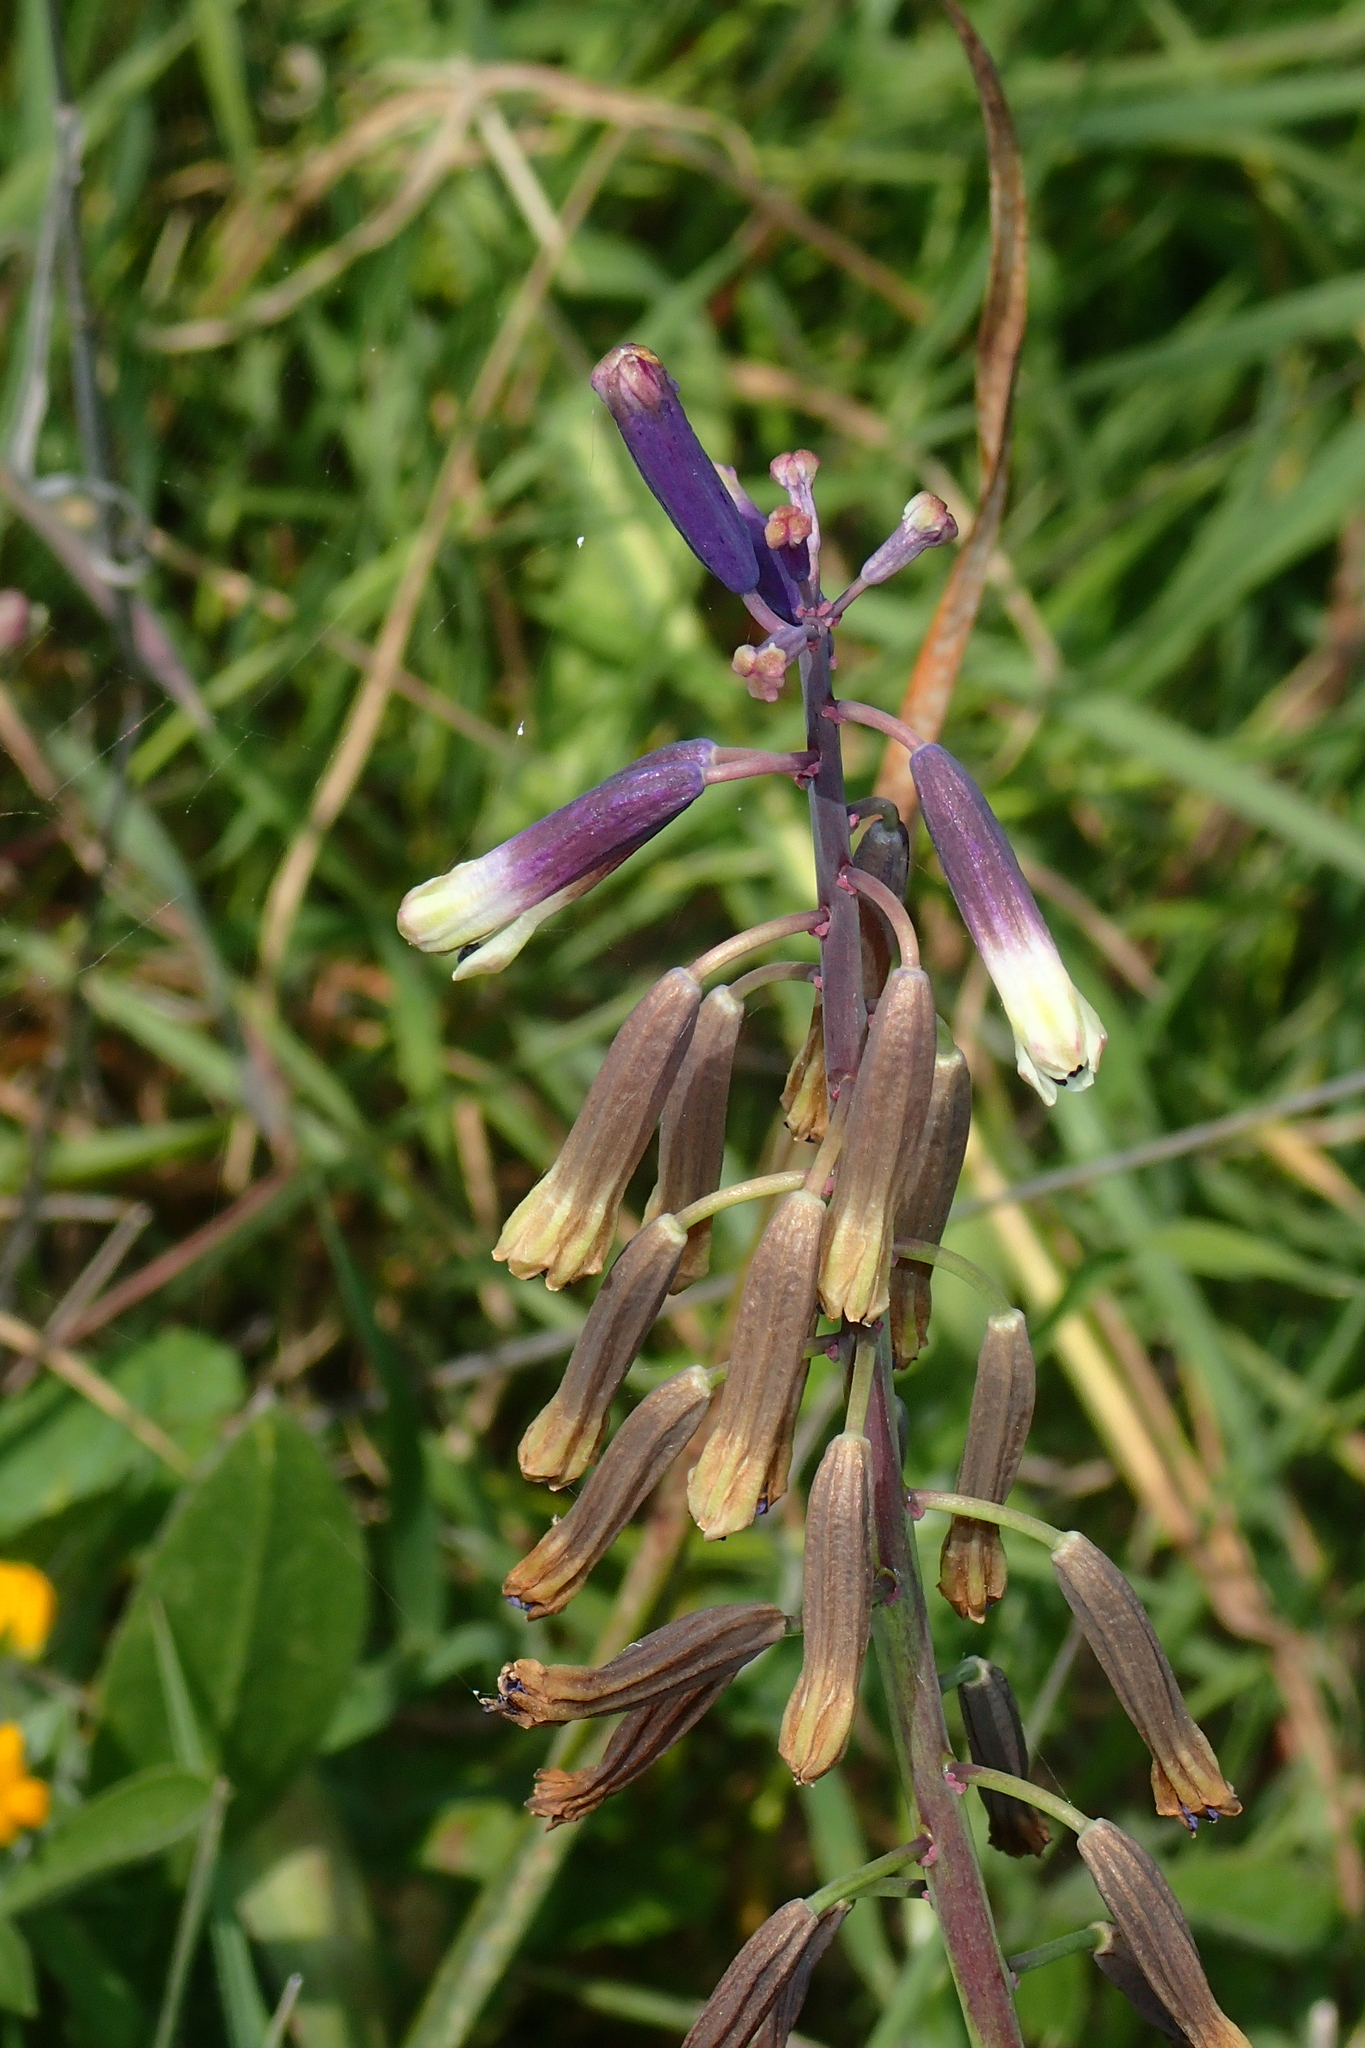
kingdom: Plantae
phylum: Tracheophyta
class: Liliopsida
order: Asparagales
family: Asparagaceae
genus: Bellevalia
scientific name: Bellevalia trifoliata
